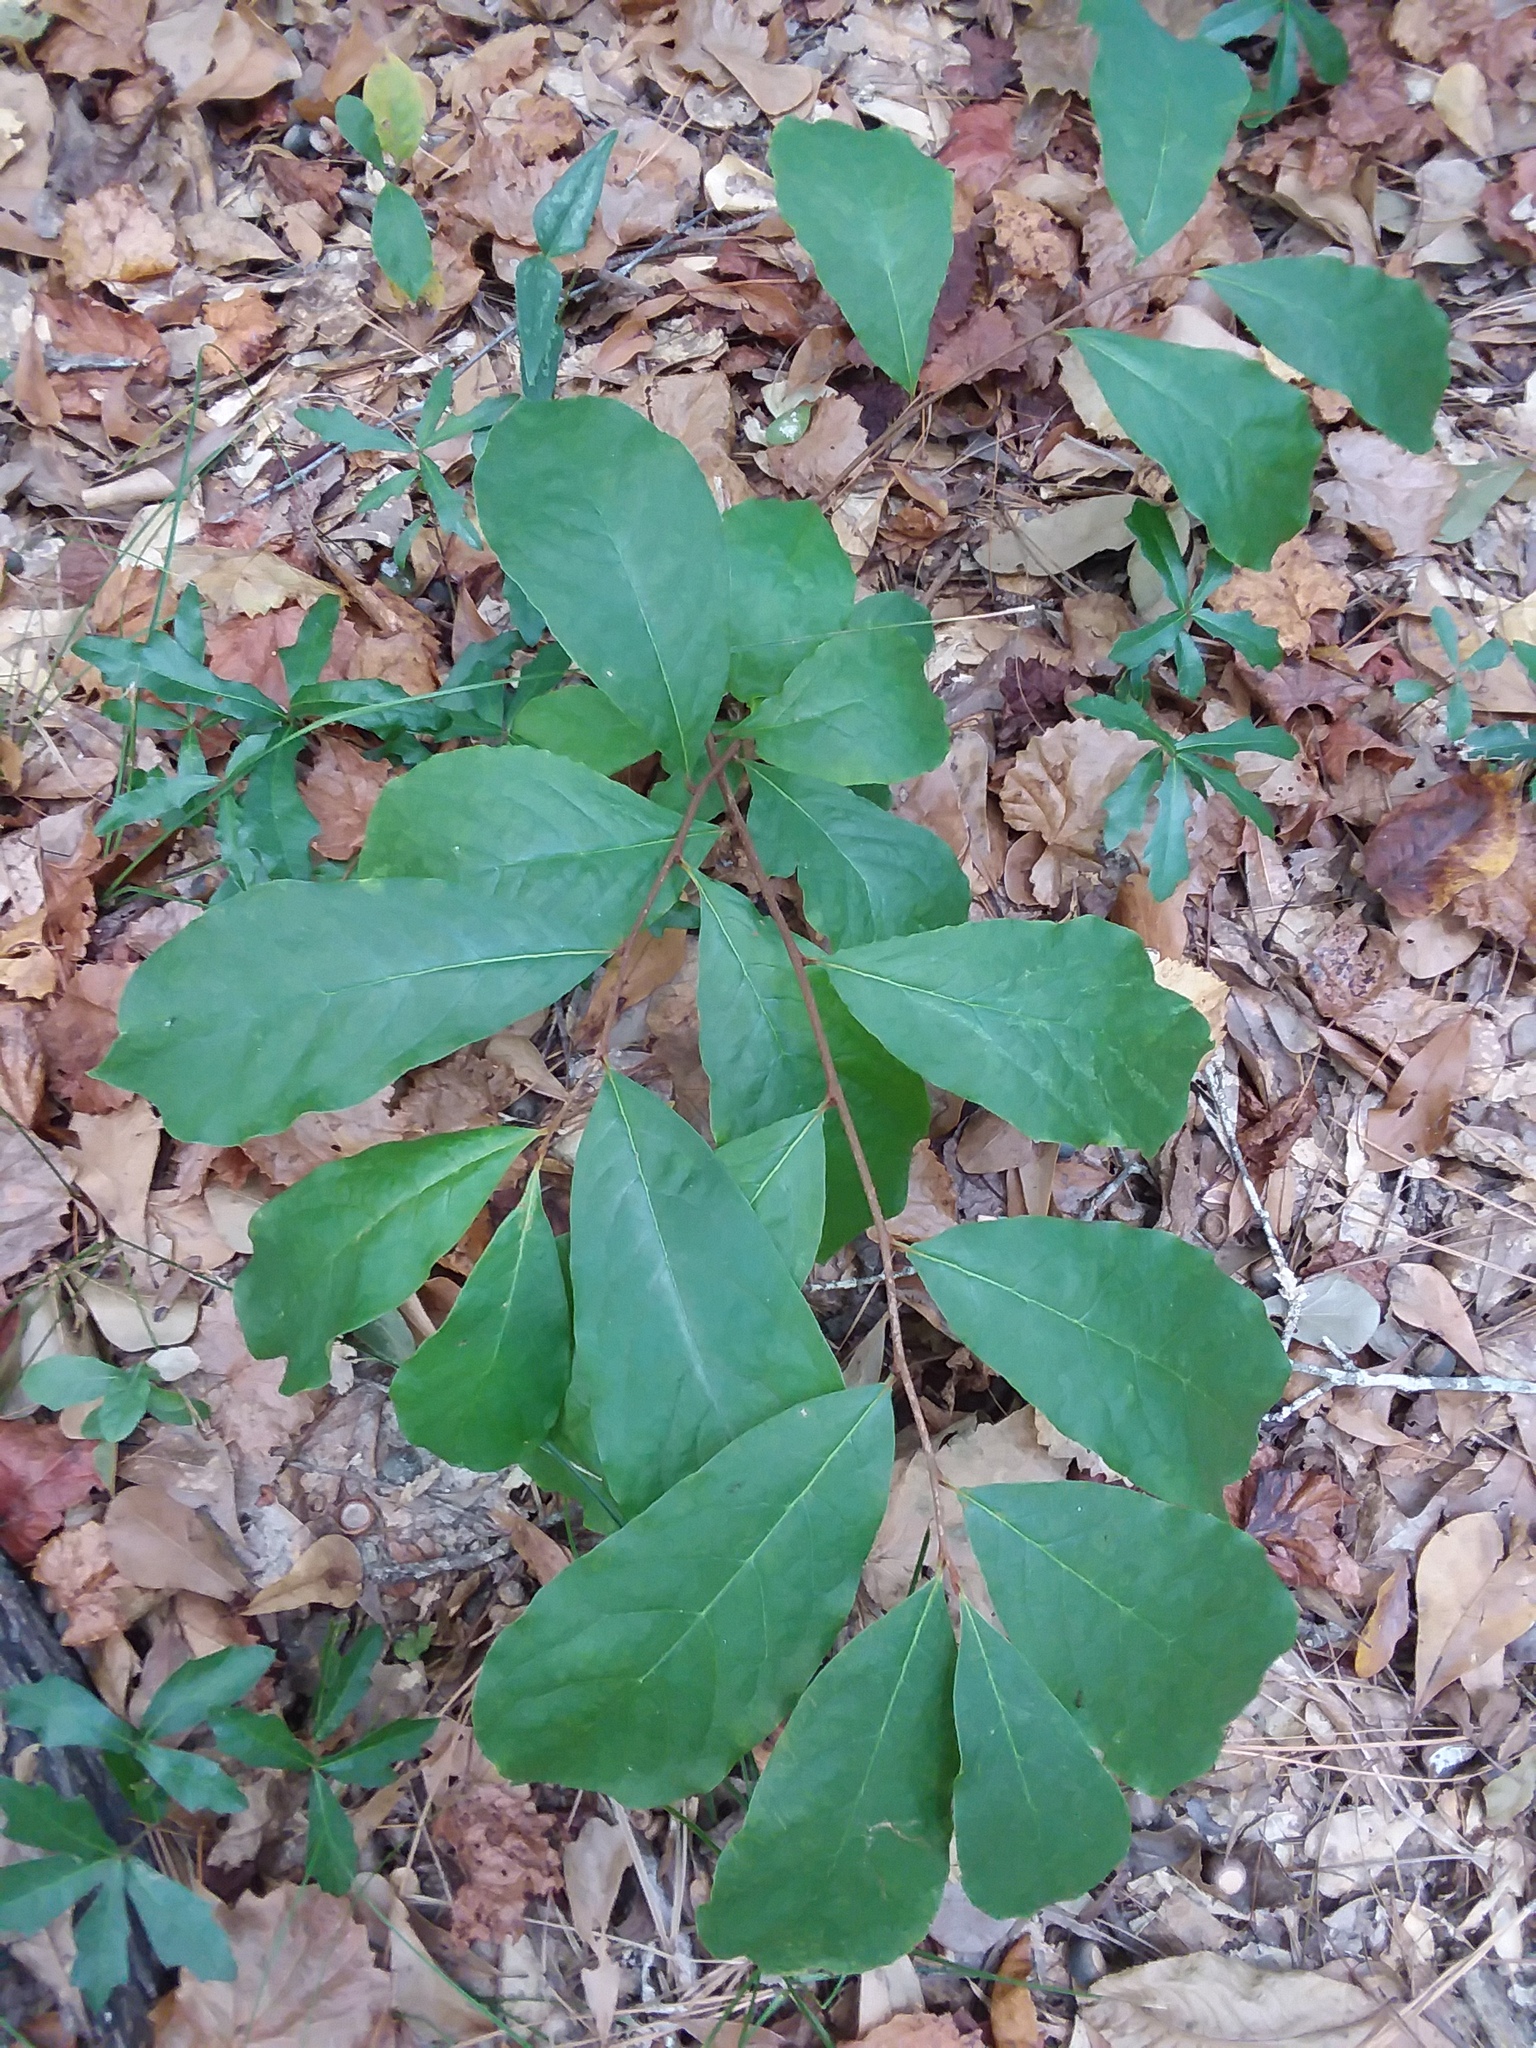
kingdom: Plantae
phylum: Tracheophyta
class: Magnoliopsida
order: Magnoliales
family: Annonaceae
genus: Asimina
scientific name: Asimina parviflora
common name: Dwarf pawpaw
